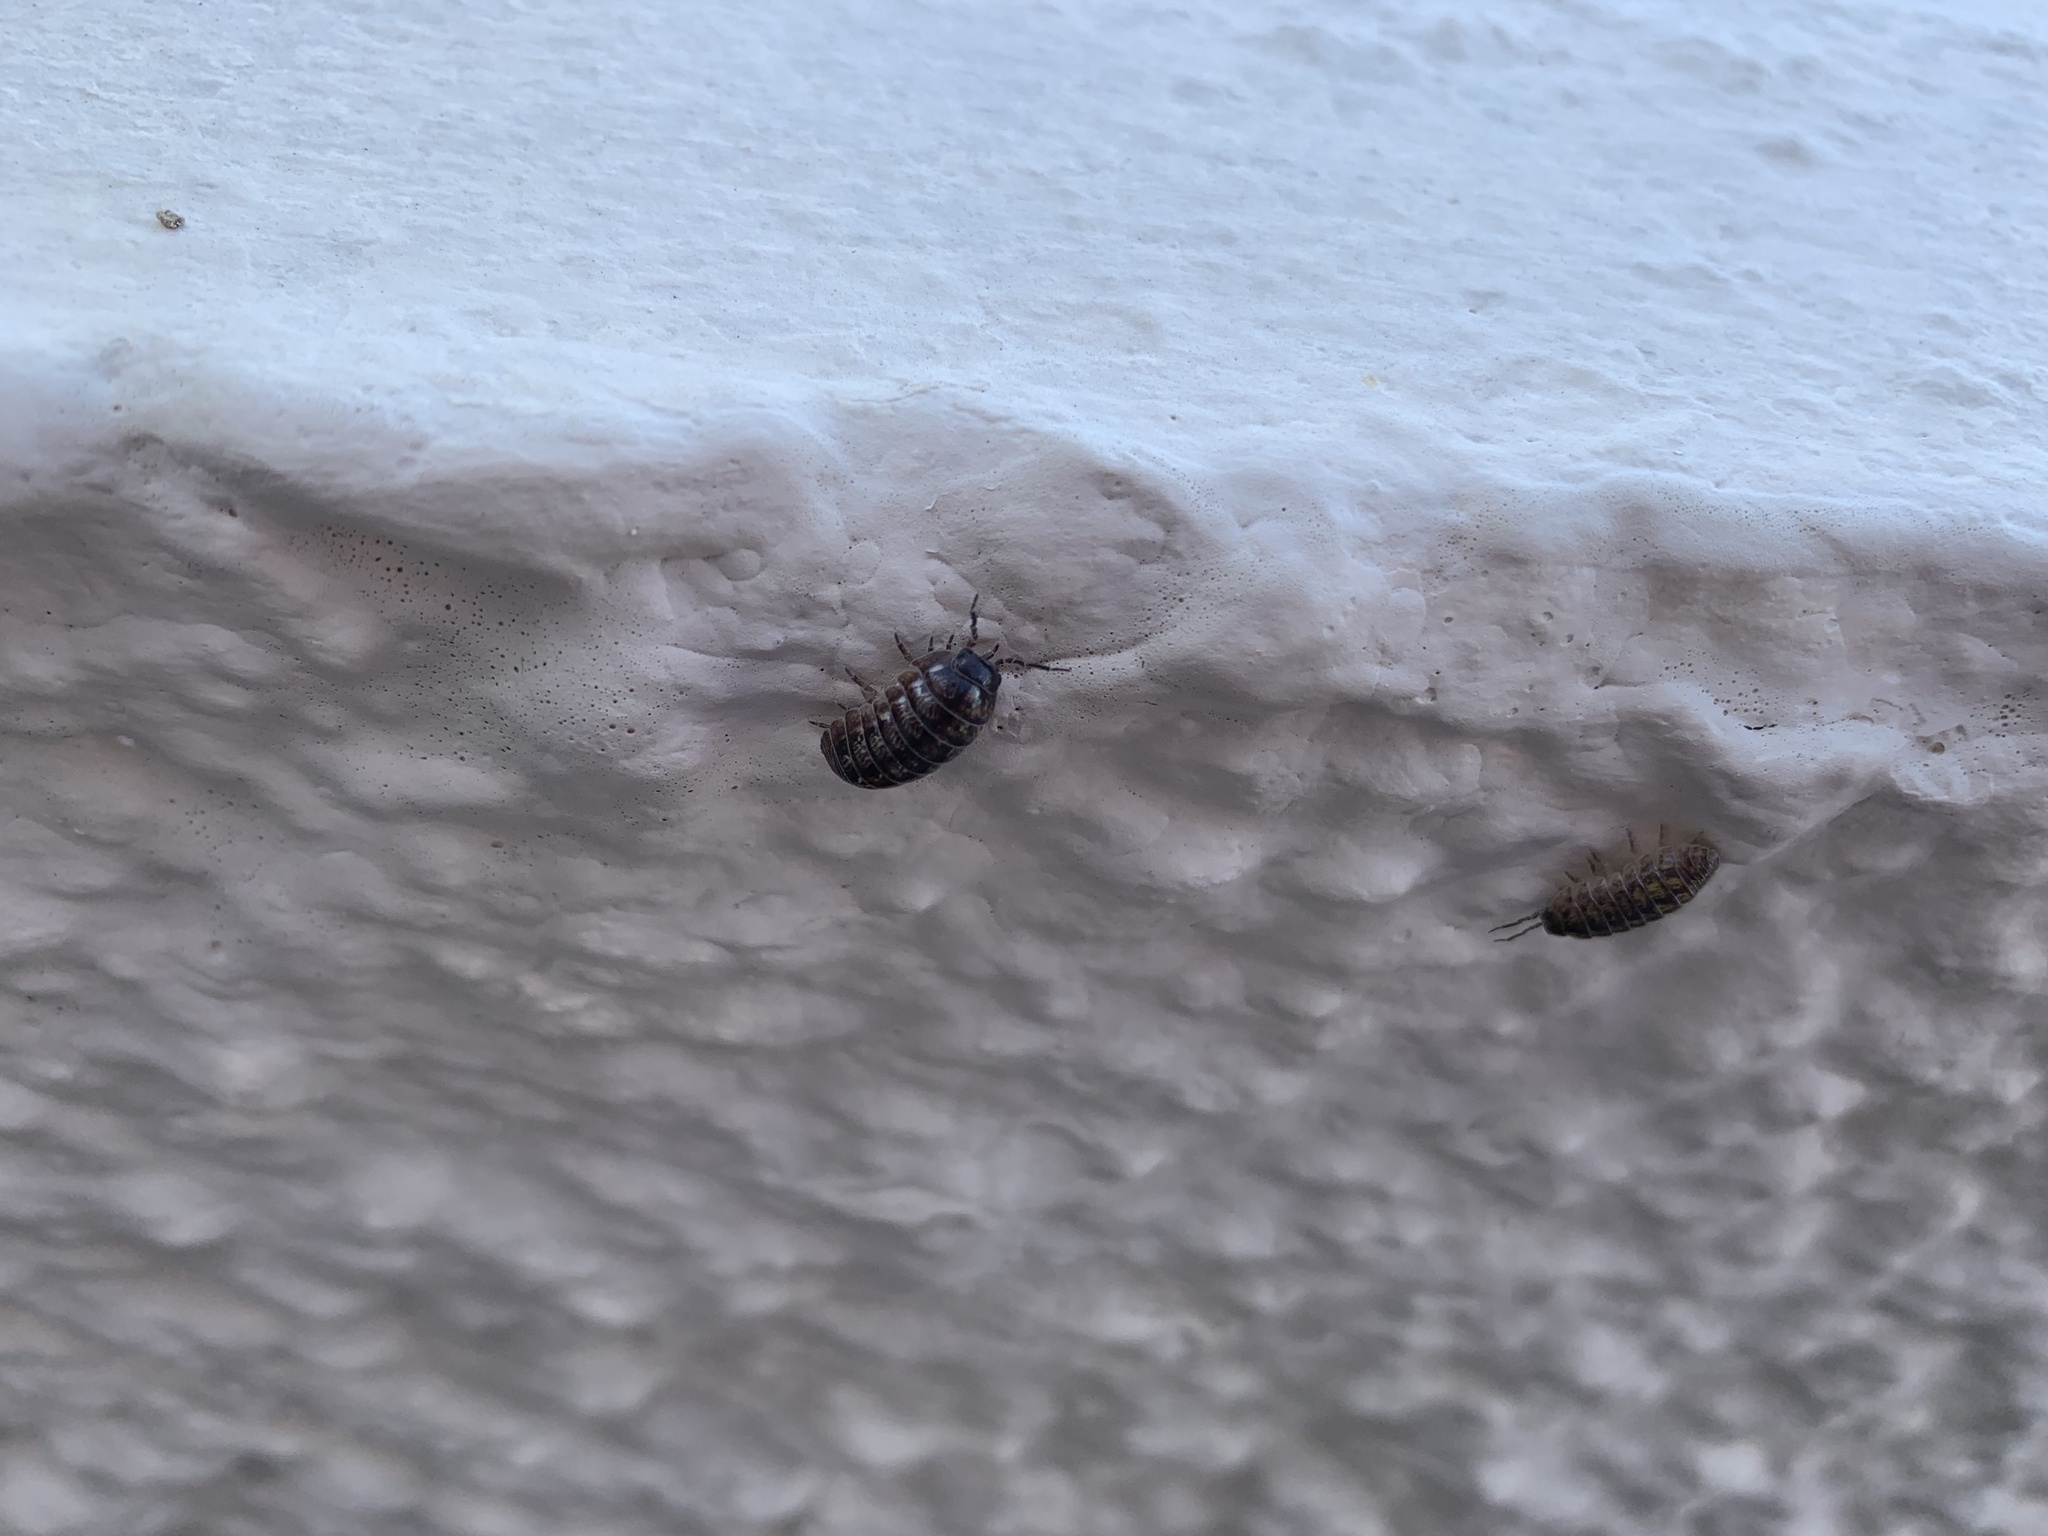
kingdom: Animalia
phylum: Arthropoda
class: Malacostraca
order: Isopoda
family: Armadillidiidae
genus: Armadillidium
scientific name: Armadillidium vulgare
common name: Common pill woodlouse
